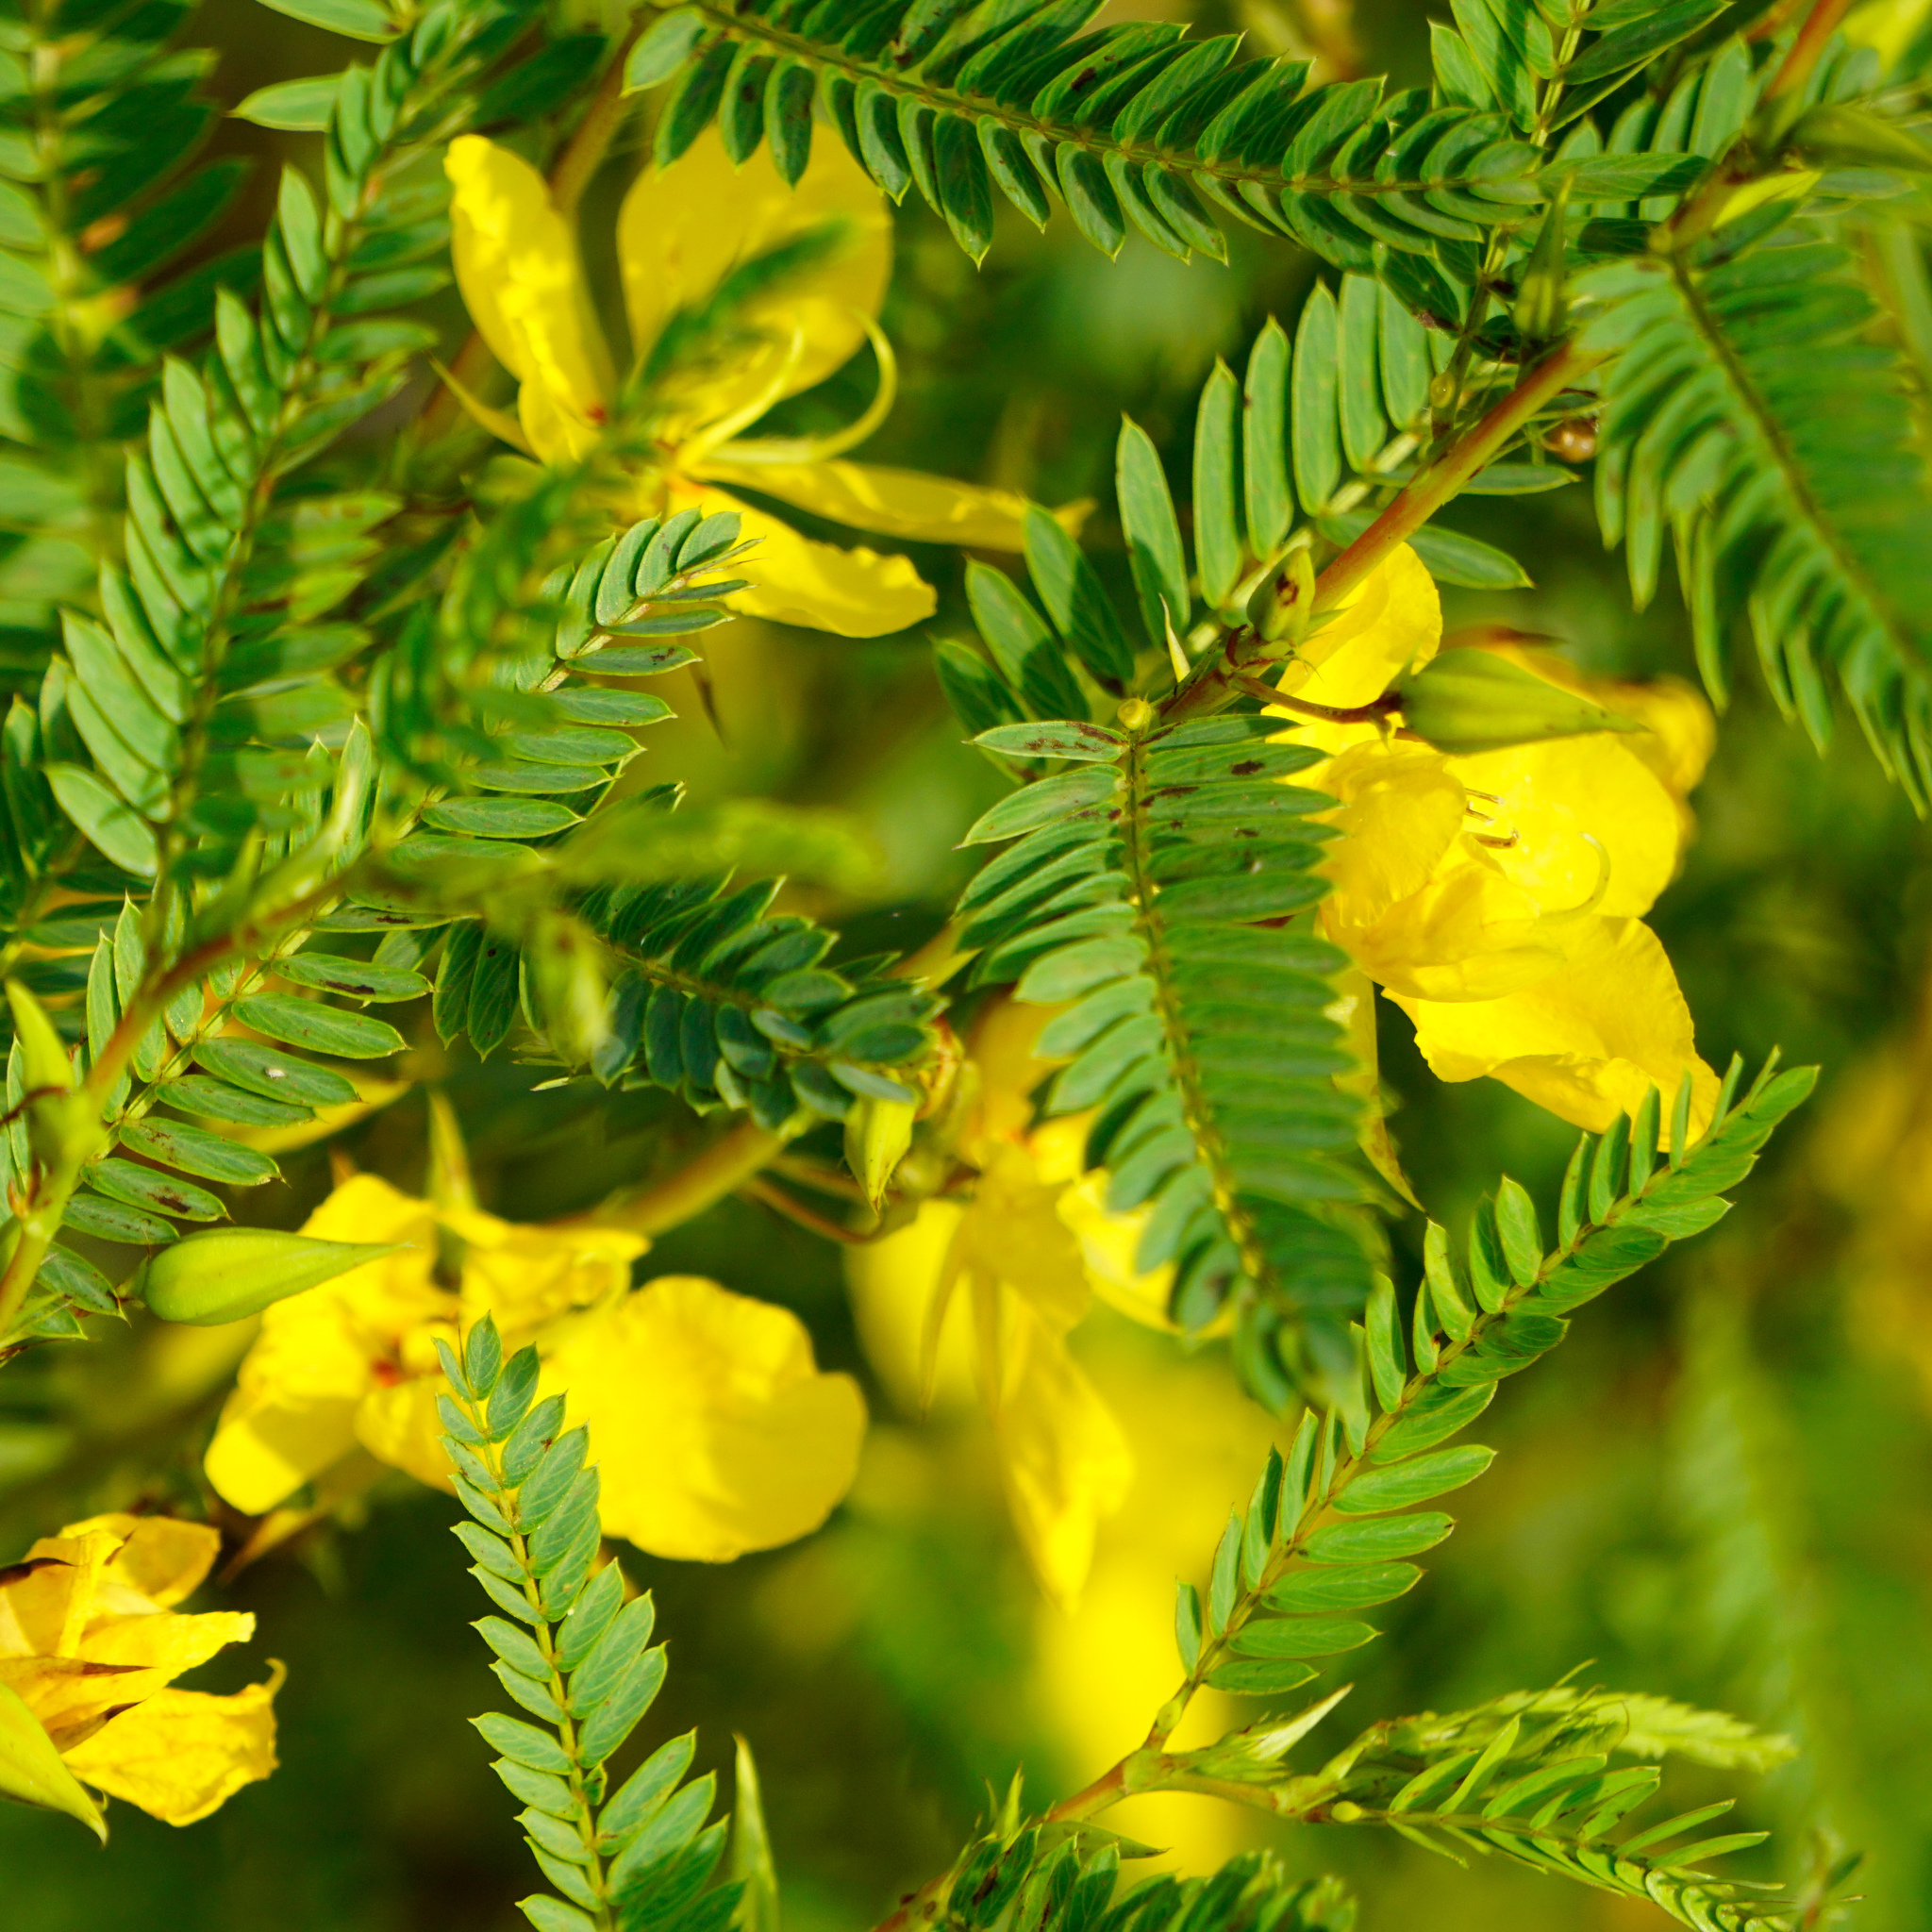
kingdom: Plantae
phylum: Tracheophyta
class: Magnoliopsida
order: Fabales
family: Fabaceae
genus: Chamaecrista
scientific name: Chamaecrista fasciculata
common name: Golden cassia
